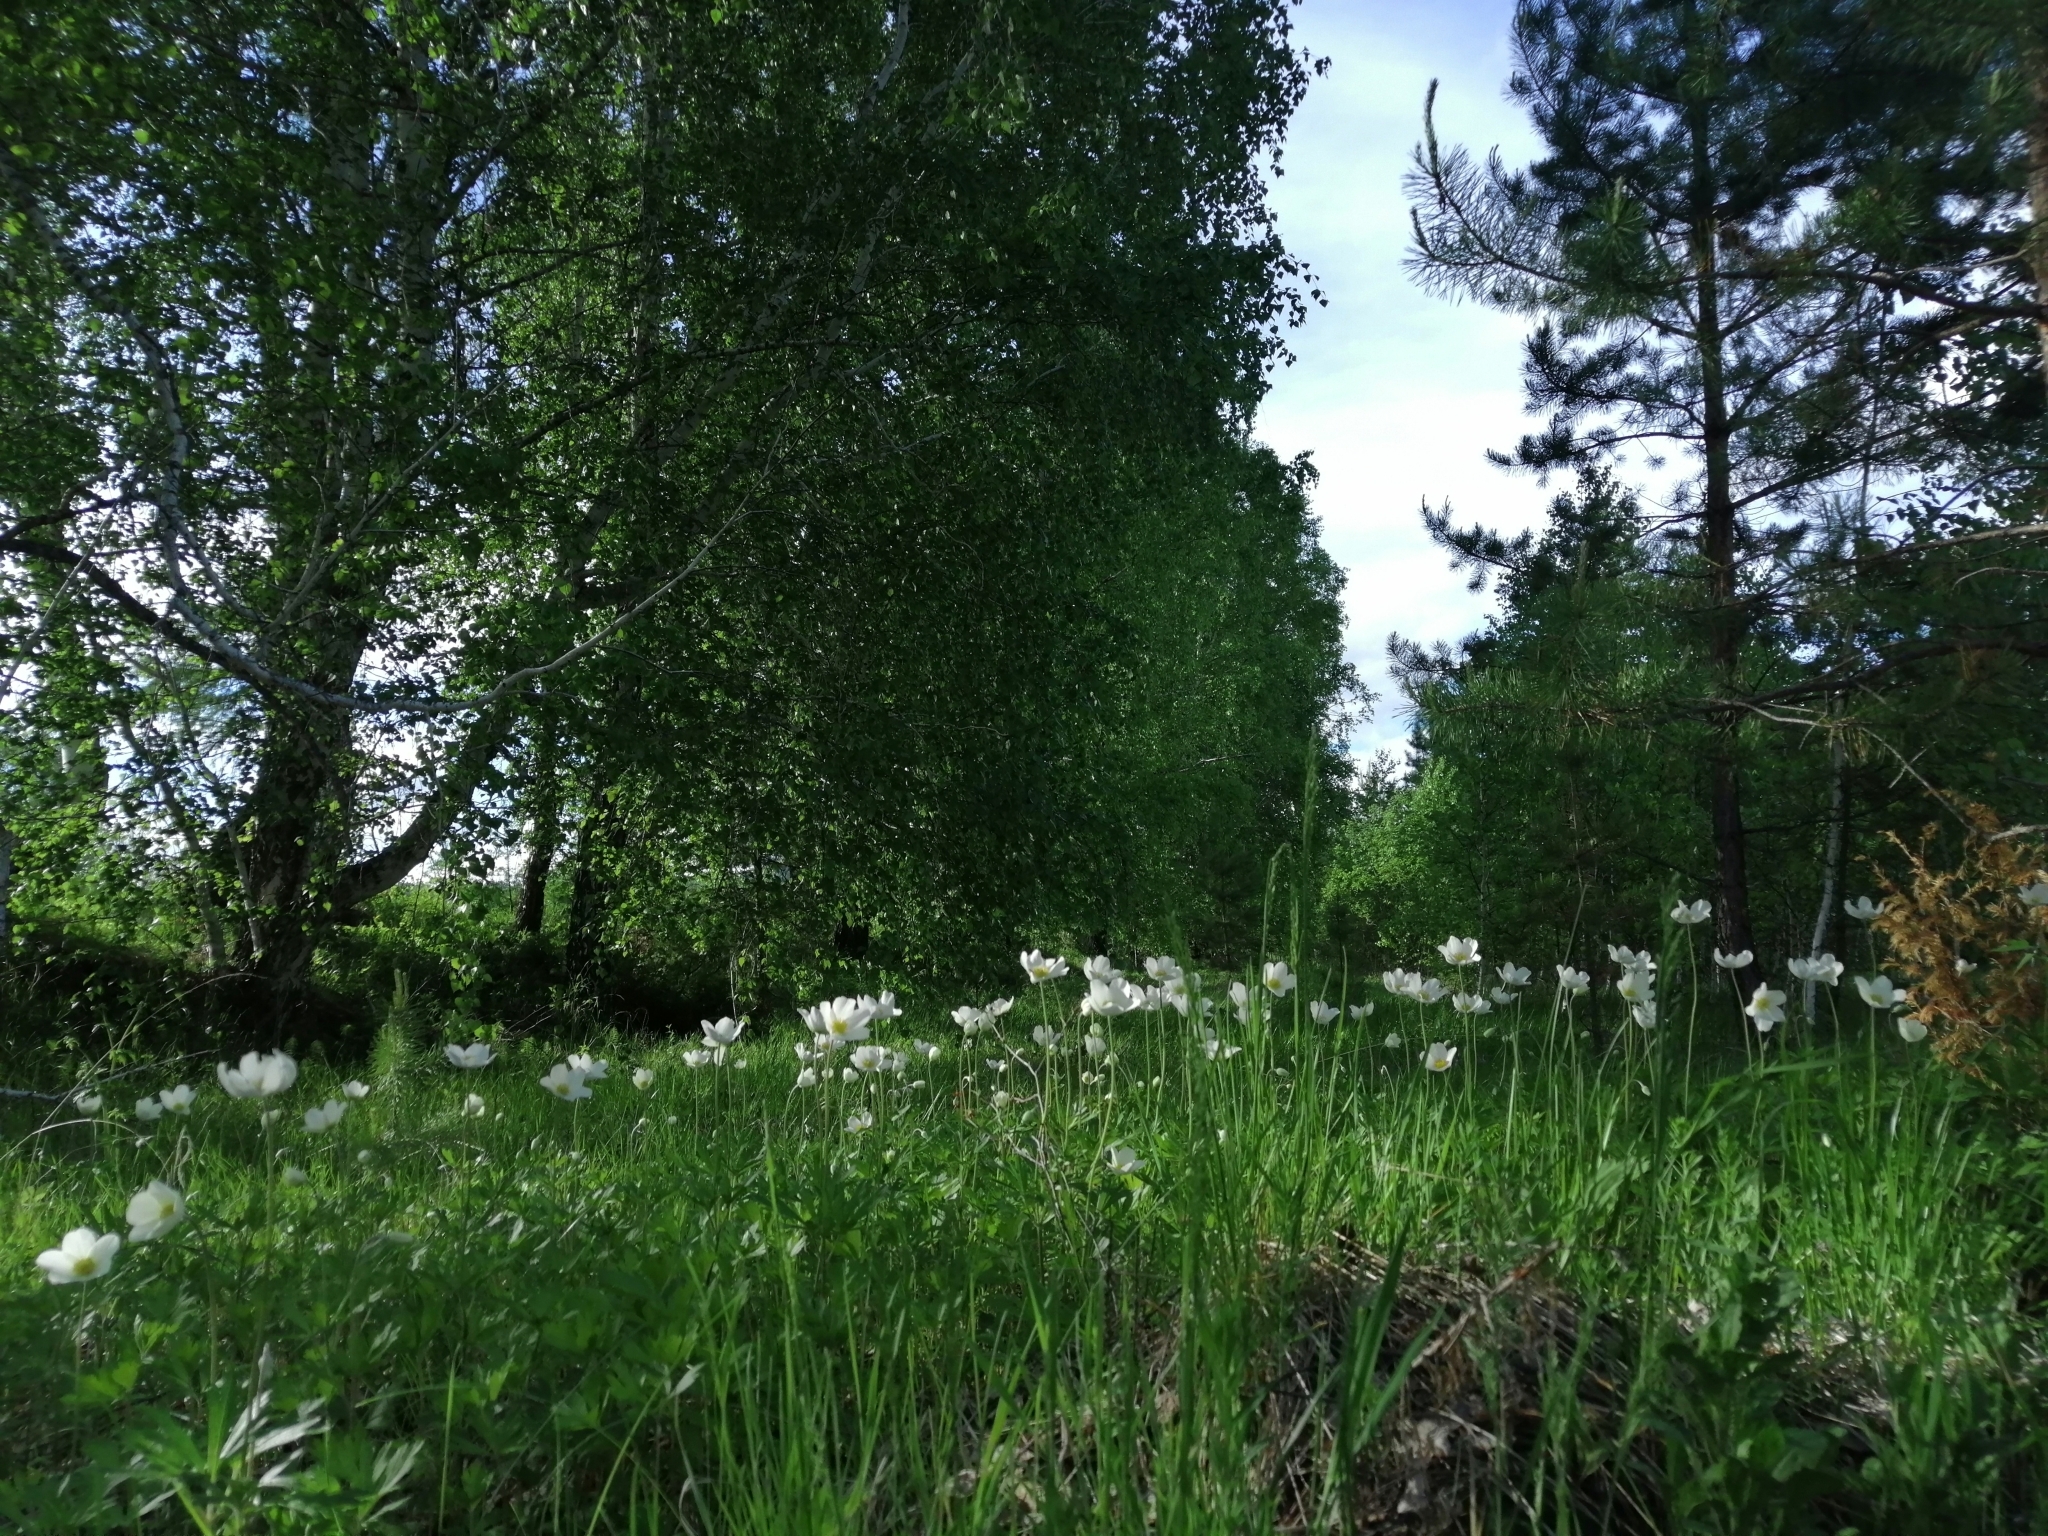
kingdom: Plantae
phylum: Tracheophyta
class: Magnoliopsida
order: Ranunculales
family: Ranunculaceae
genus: Anemone
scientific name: Anemone sylvestris
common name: Snowdrop anemone
